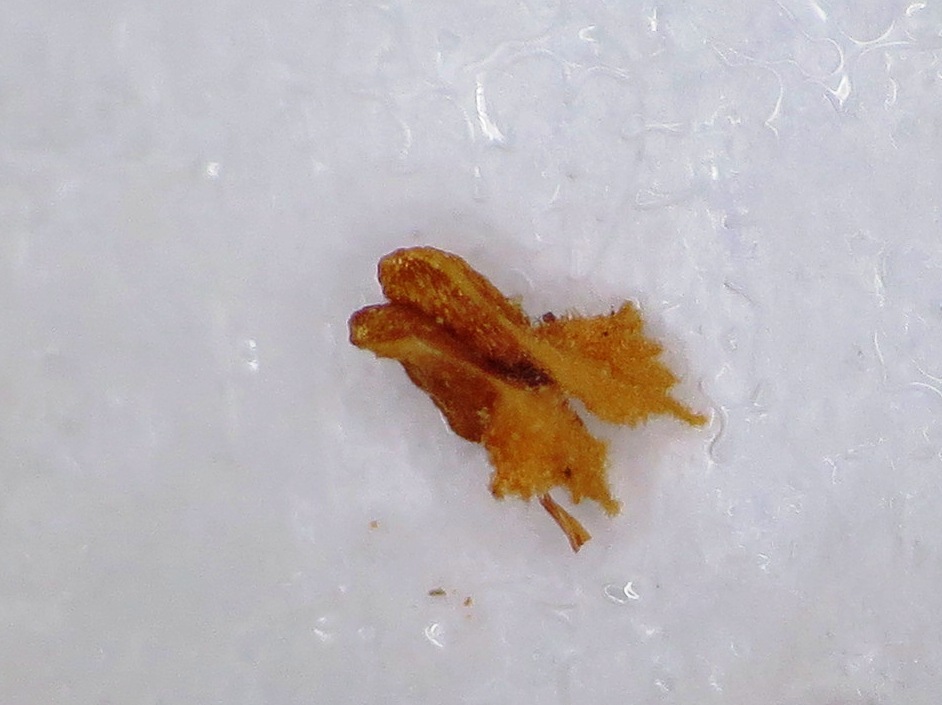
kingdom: Plantae
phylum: Tracheophyta
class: Magnoliopsida
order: Ericales
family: Ericaceae
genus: Erica
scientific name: Erica oresigena
